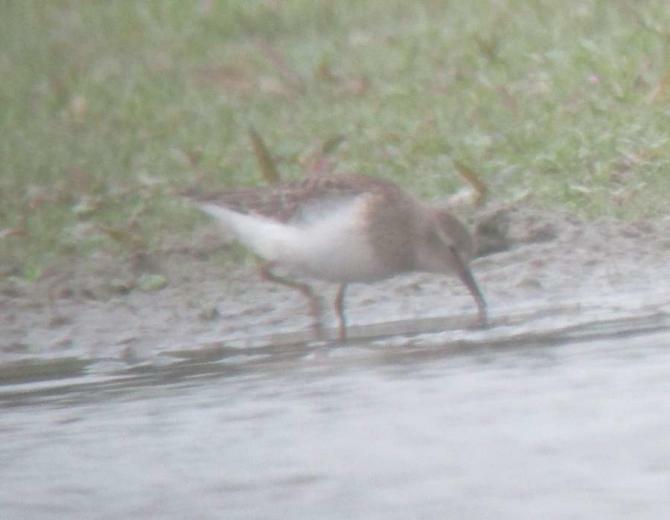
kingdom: Animalia
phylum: Chordata
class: Aves
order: Charadriiformes
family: Scolopacidae
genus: Calidris
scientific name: Calidris temminckii
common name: Temminck's stint
